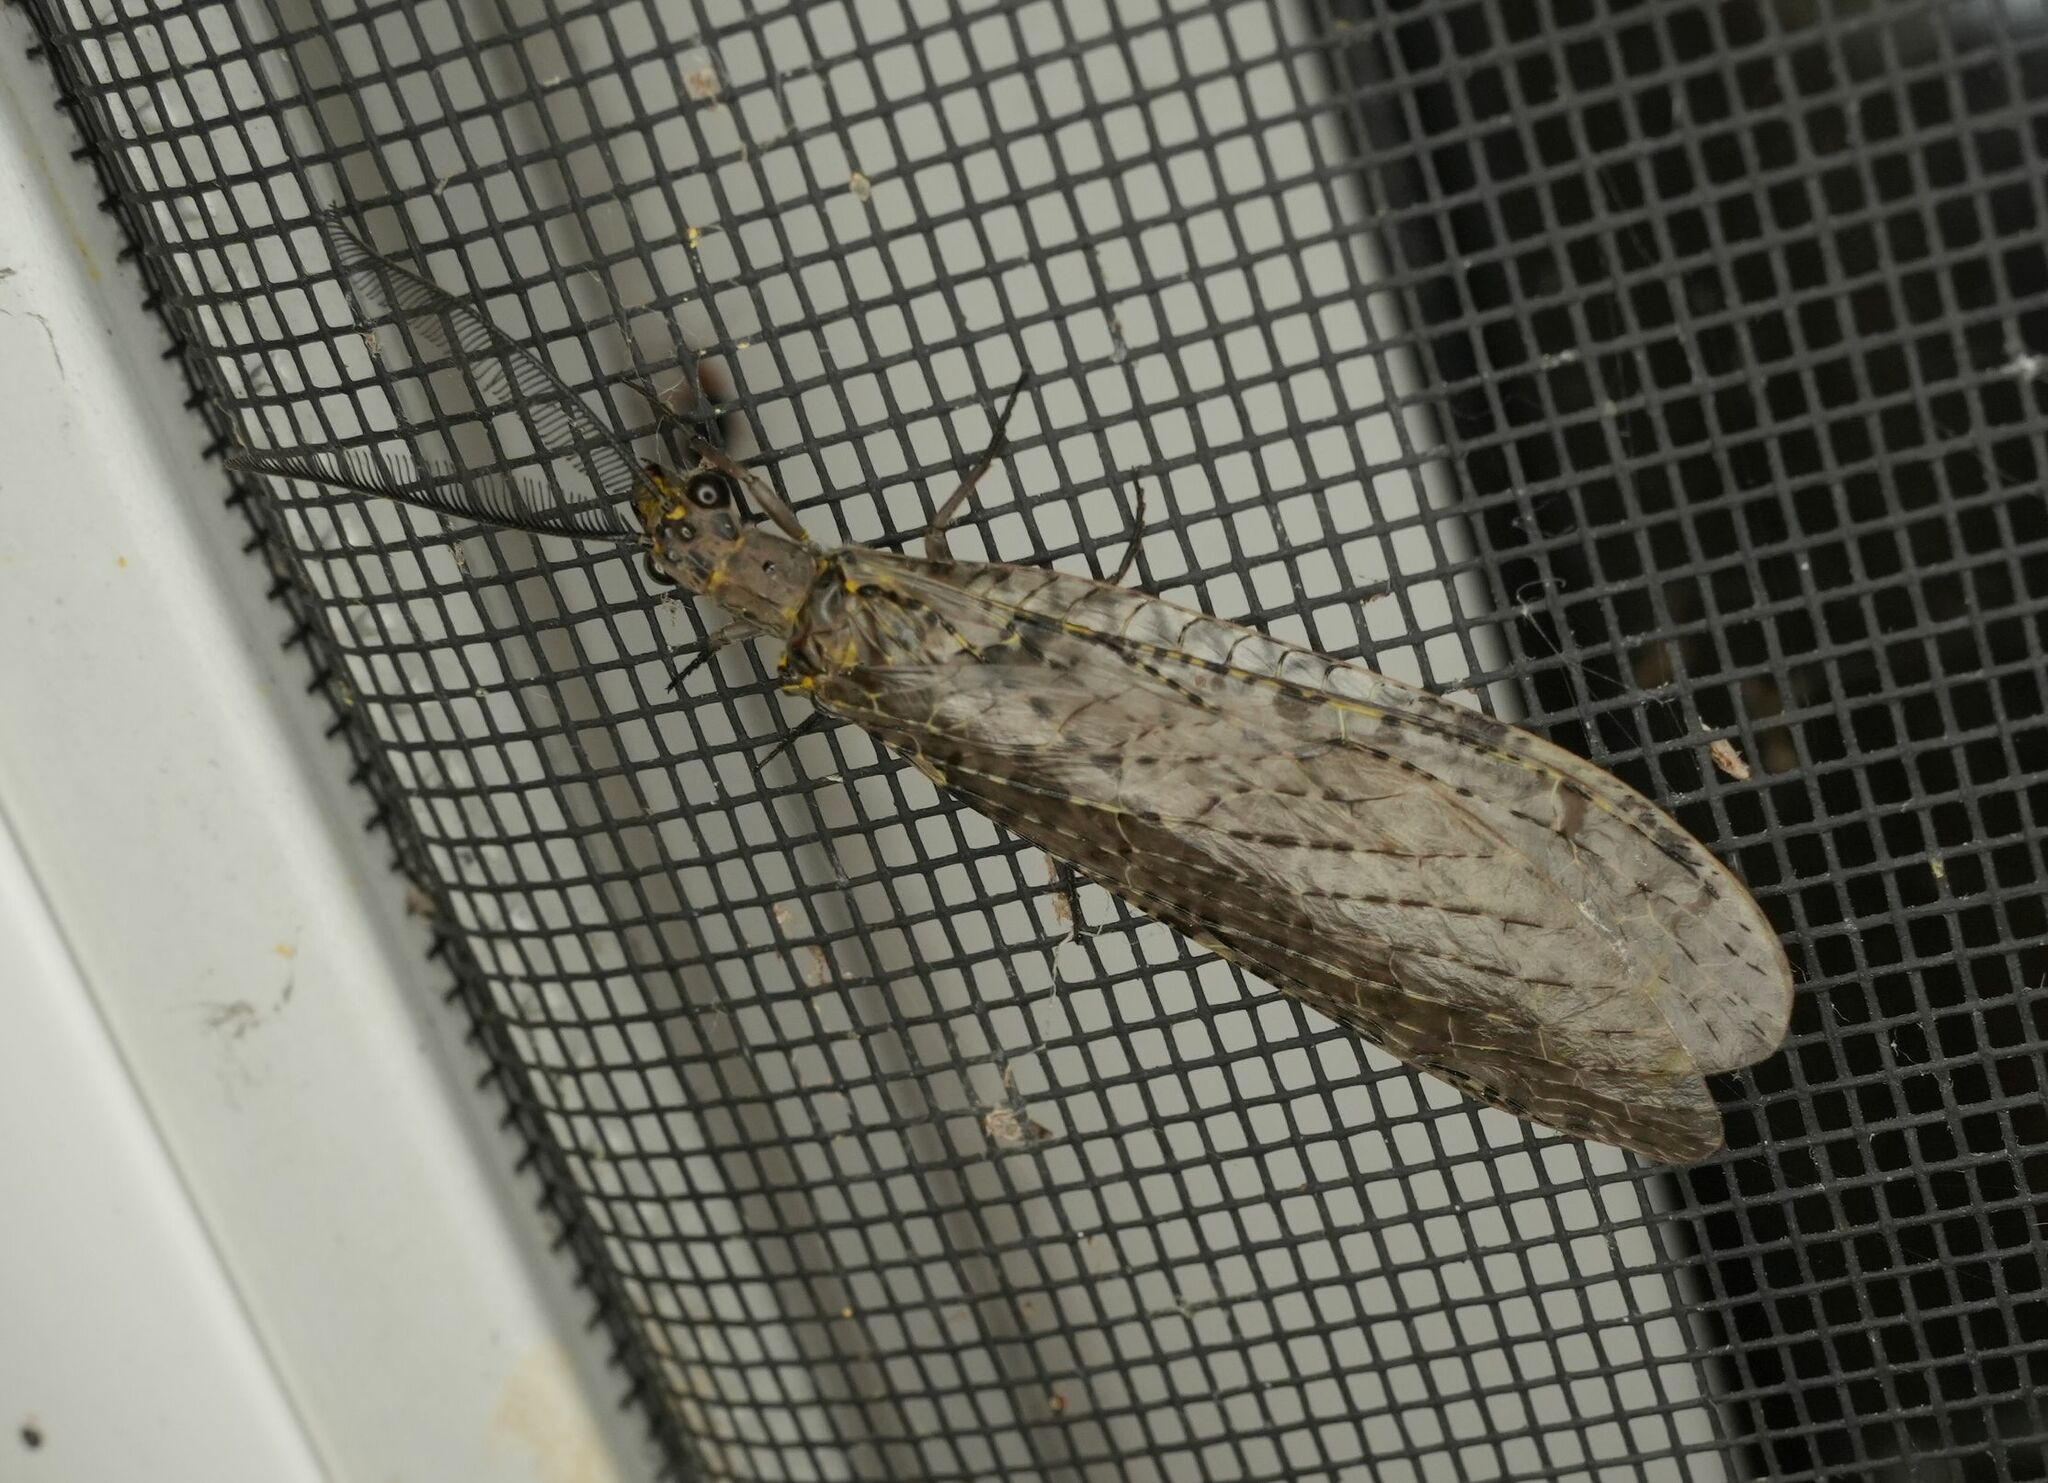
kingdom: Animalia
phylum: Arthropoda
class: Insecta
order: Megaloptera
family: Corydalidae
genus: Chauliodes
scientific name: Chauliodes rastricornis
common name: Spring fishfly
